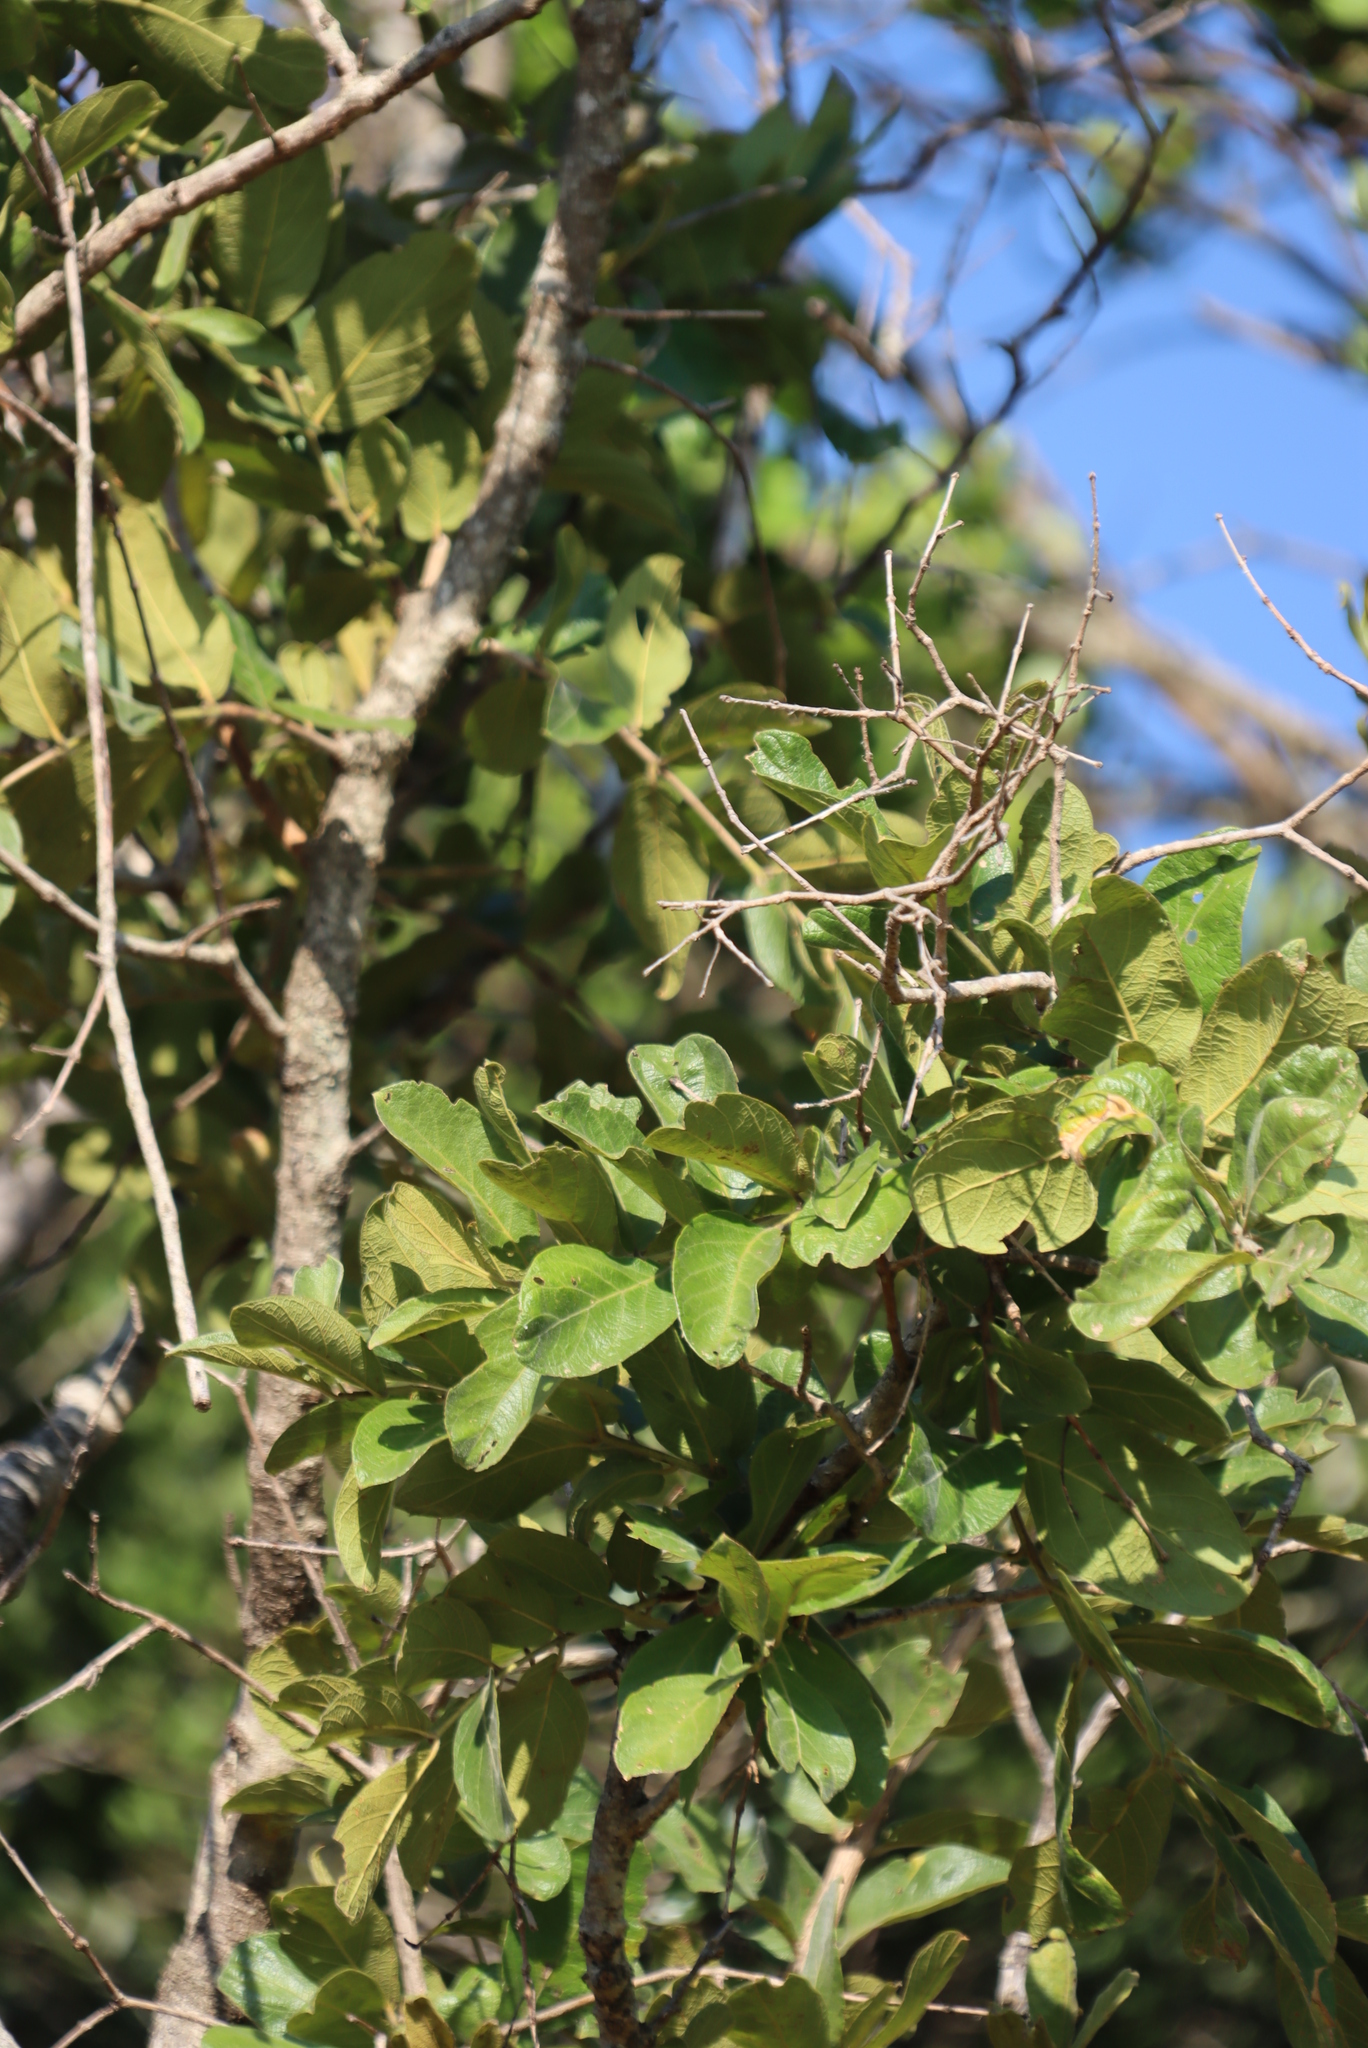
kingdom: Plantae
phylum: Tracheophyta
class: Magnoliopsida
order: Myrtales
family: Combretaceae
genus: Combretum
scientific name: Combretum molle
